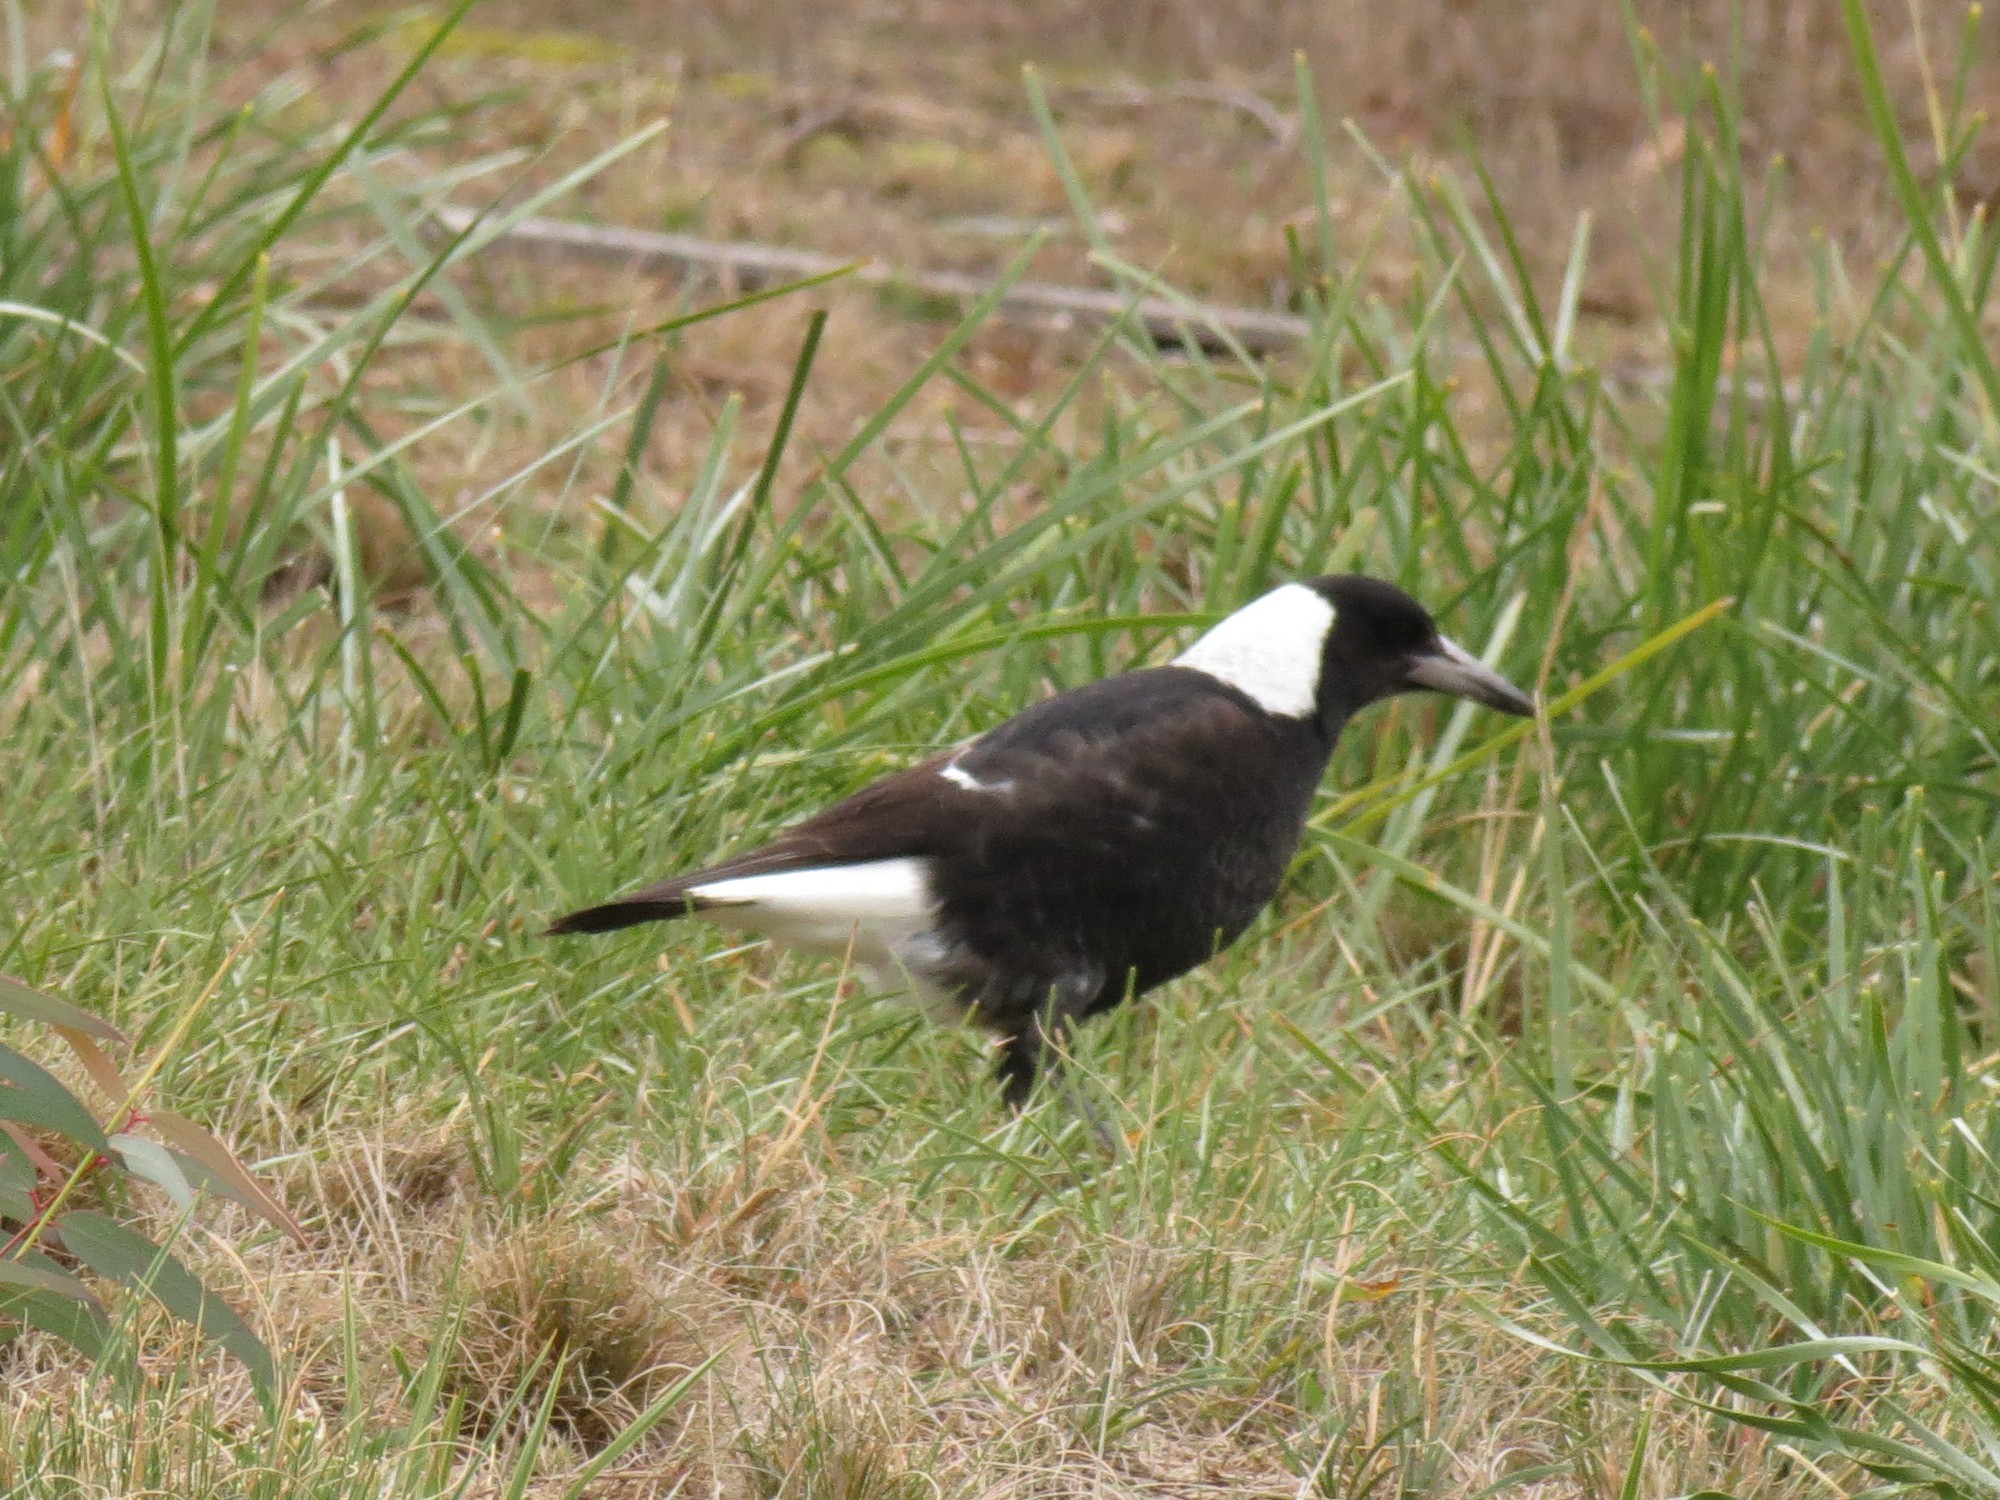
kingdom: Animalia
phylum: Chordata
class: Aves
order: Passeriformes
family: Cracticidae
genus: Gymnorhina
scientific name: Gymnorhina tibicen
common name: Australian magpie
